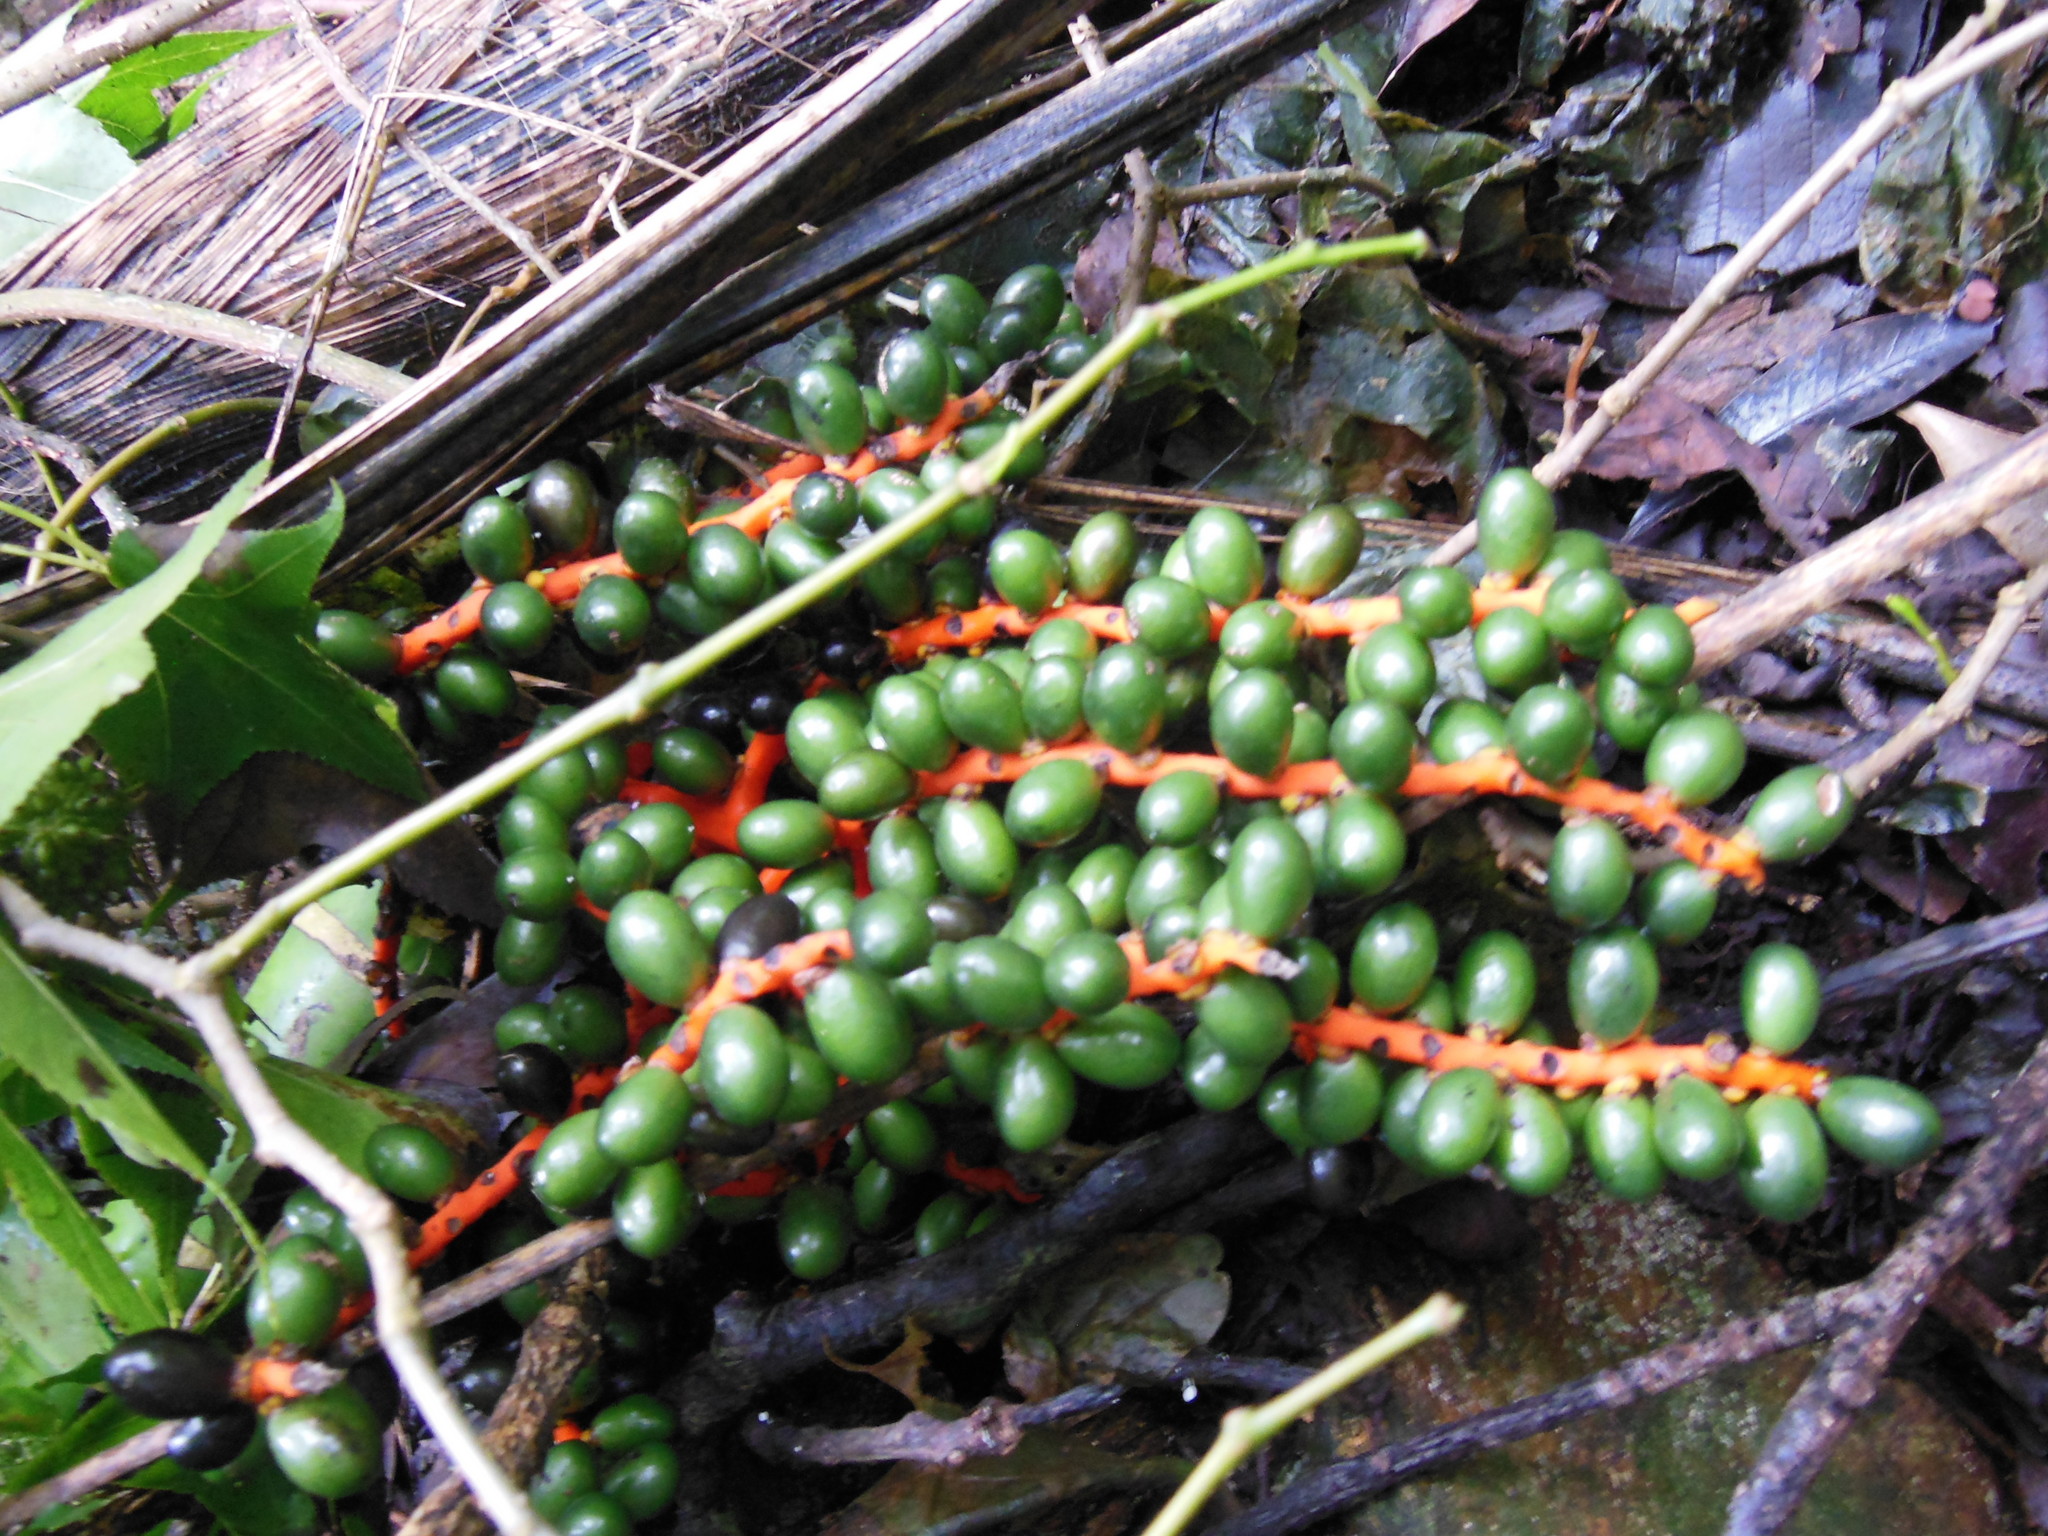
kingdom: Plantae
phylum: Tracheophyta
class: Liliopsida
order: Arecales
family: Arecaceae
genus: Chamaedorea
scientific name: Chamaedorea costaricana
